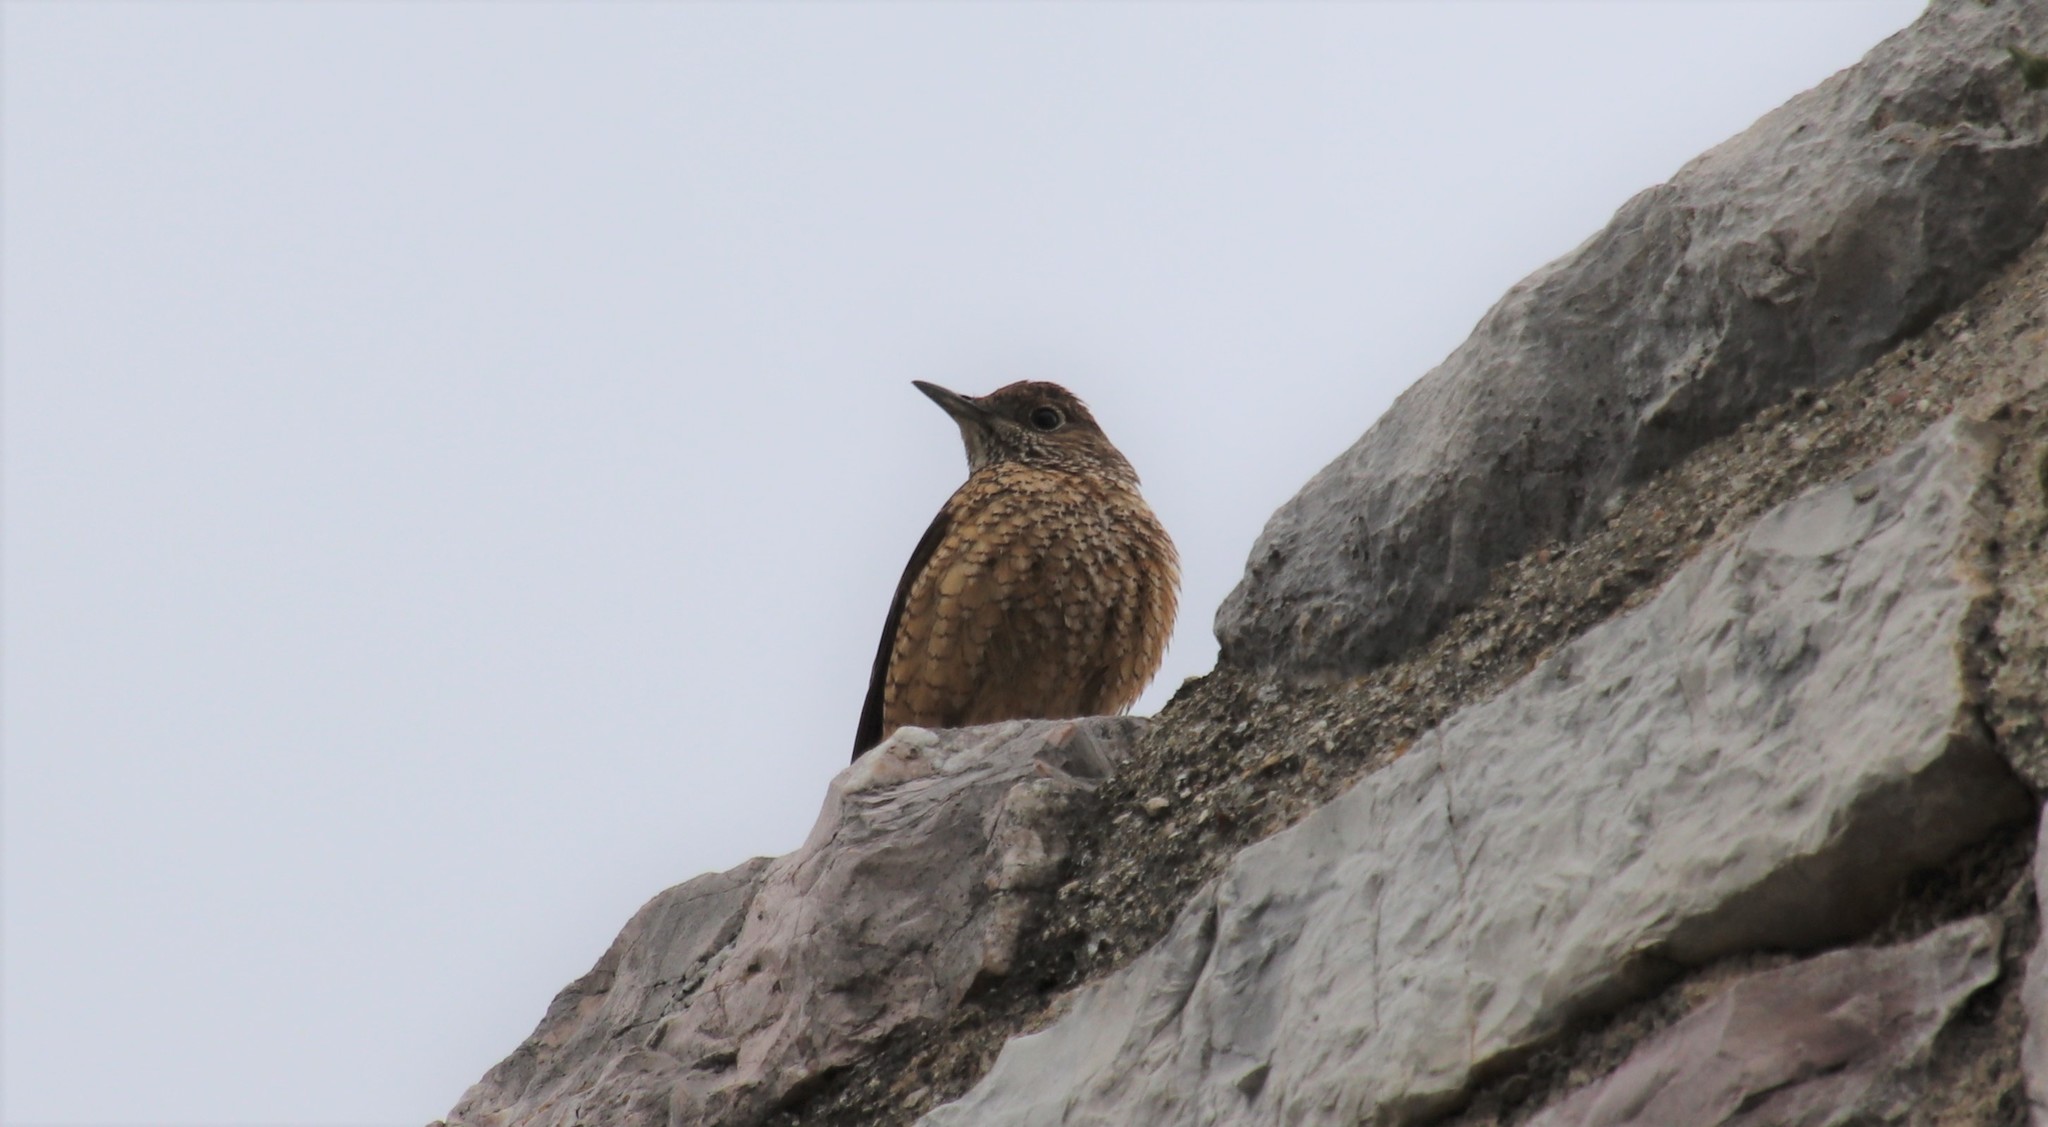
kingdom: Animalia
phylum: Chordata
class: Aves
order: Passeriformes
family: Muscicapidae
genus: Monticola
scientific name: Monticola solitarius
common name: Blue rock thrush
